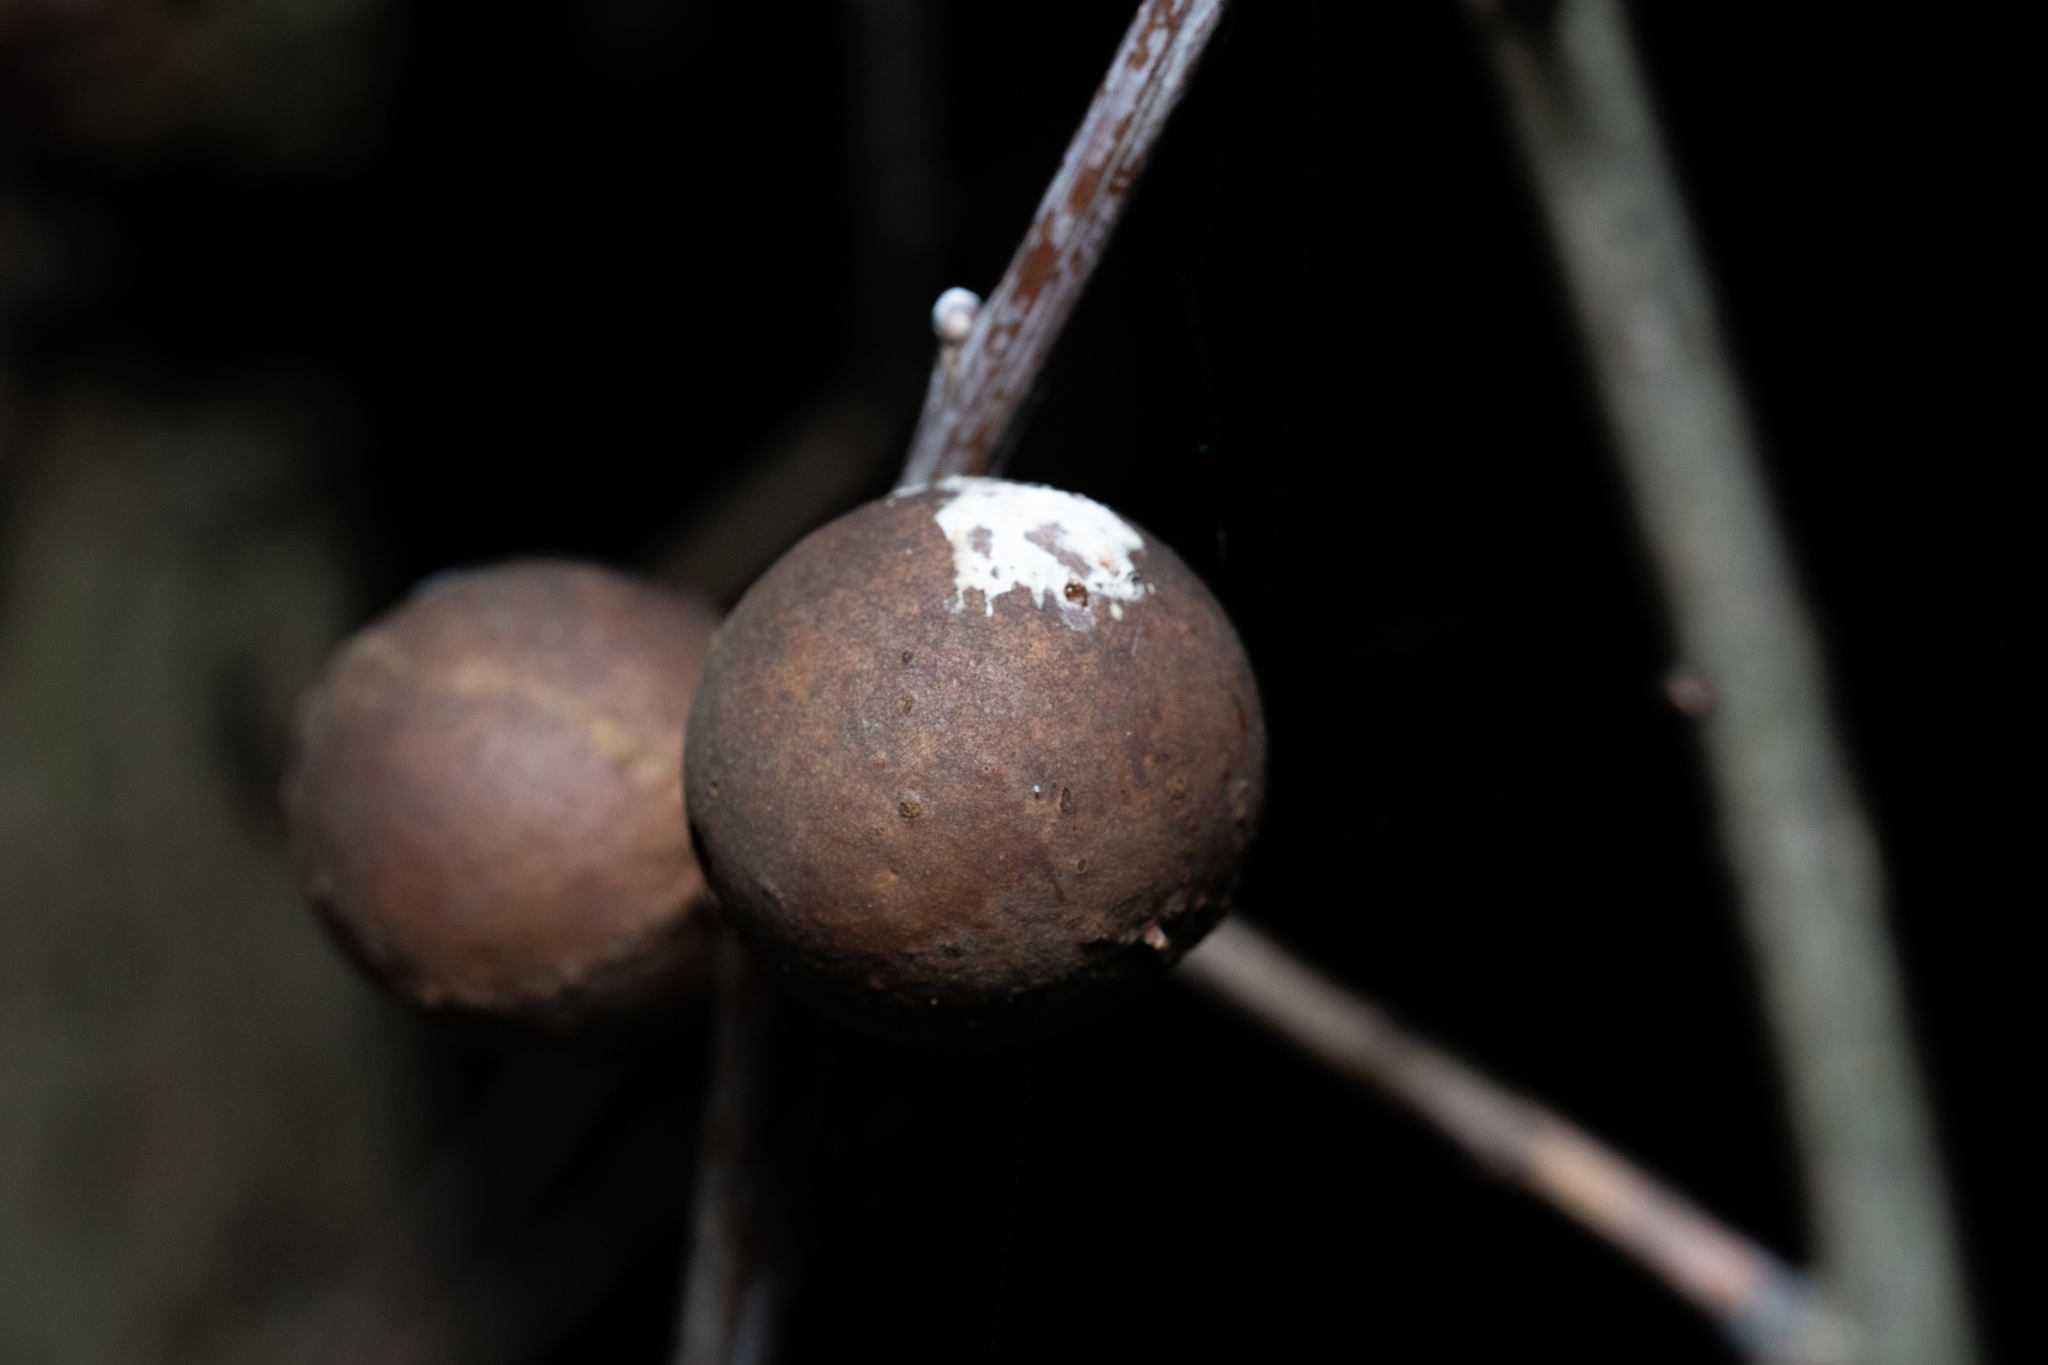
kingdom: Animalia
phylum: Arthropoda
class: Insecta
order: Hymenoptera
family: Cynipidae
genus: Andricus
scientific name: Andricus kollari
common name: Marble gall
